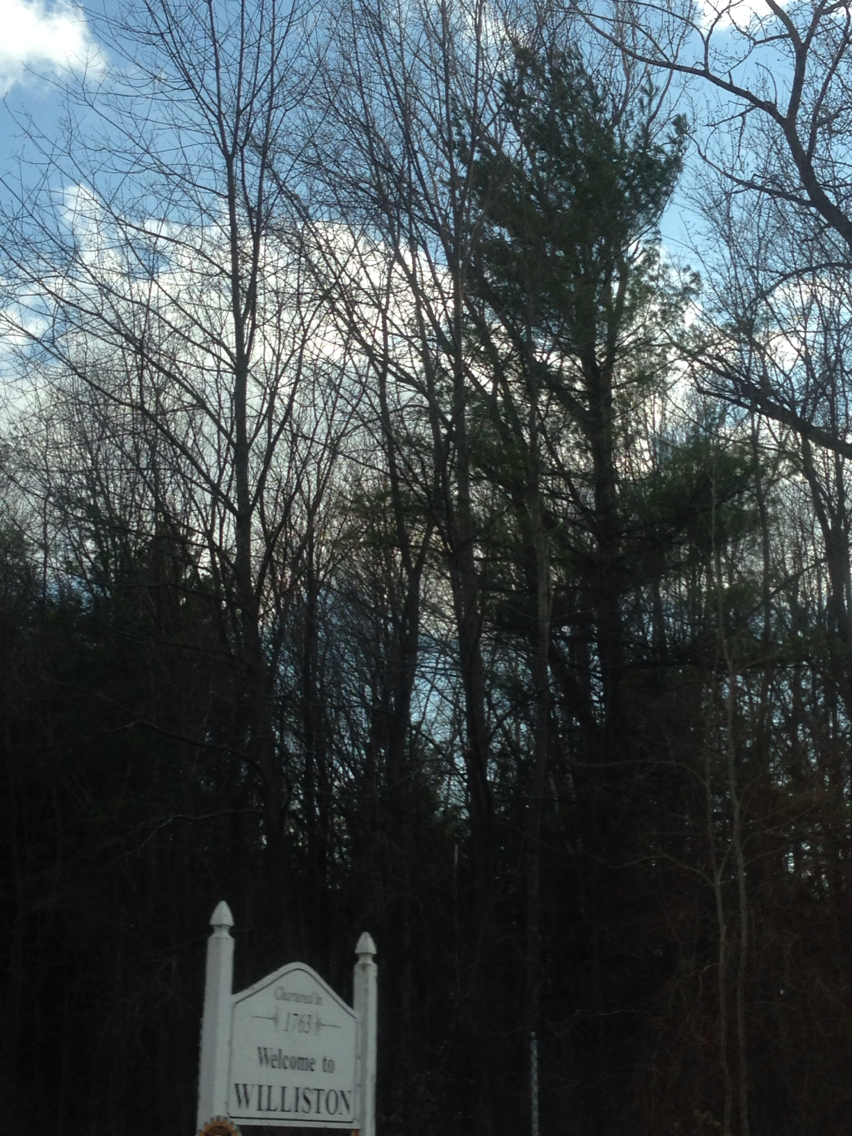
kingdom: Plantae
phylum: Tracheophyta
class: Pinopsida
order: Pinales
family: Pinaceae
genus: Pinus
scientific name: Pinus strobus
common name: Weymouth pine
